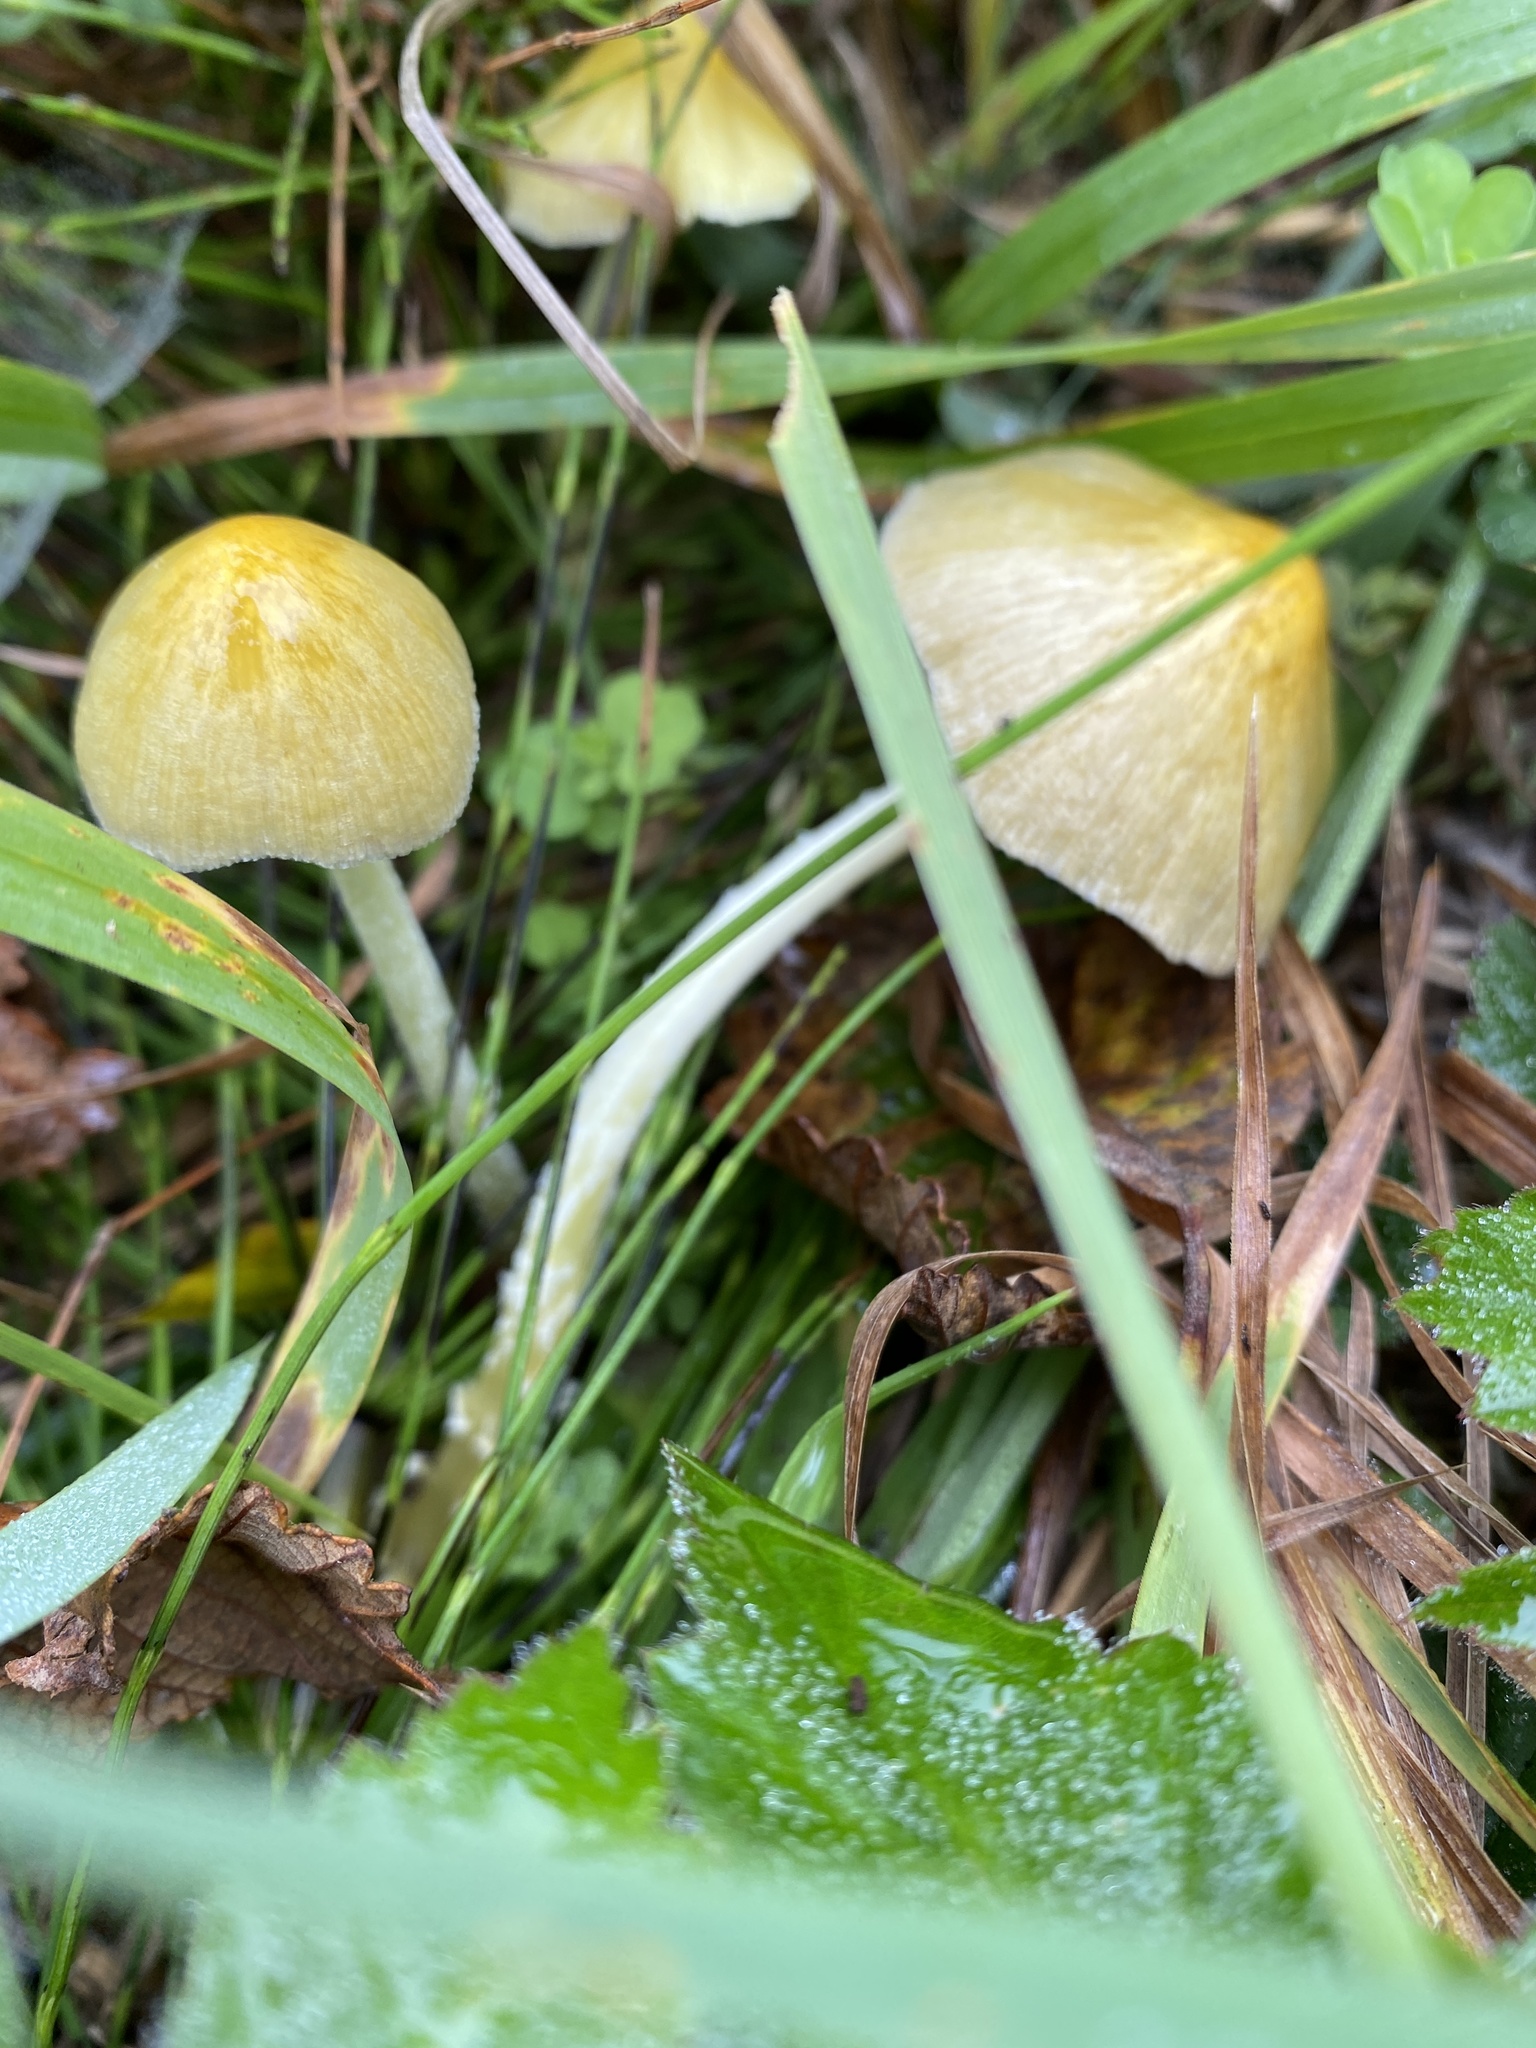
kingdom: Fungi
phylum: Basidiomycota
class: Agaricomycetes
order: Agaricales
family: Bolbitiaceae
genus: Bolbitius
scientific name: Bolbitius titubans
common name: Yellow fieldcap
